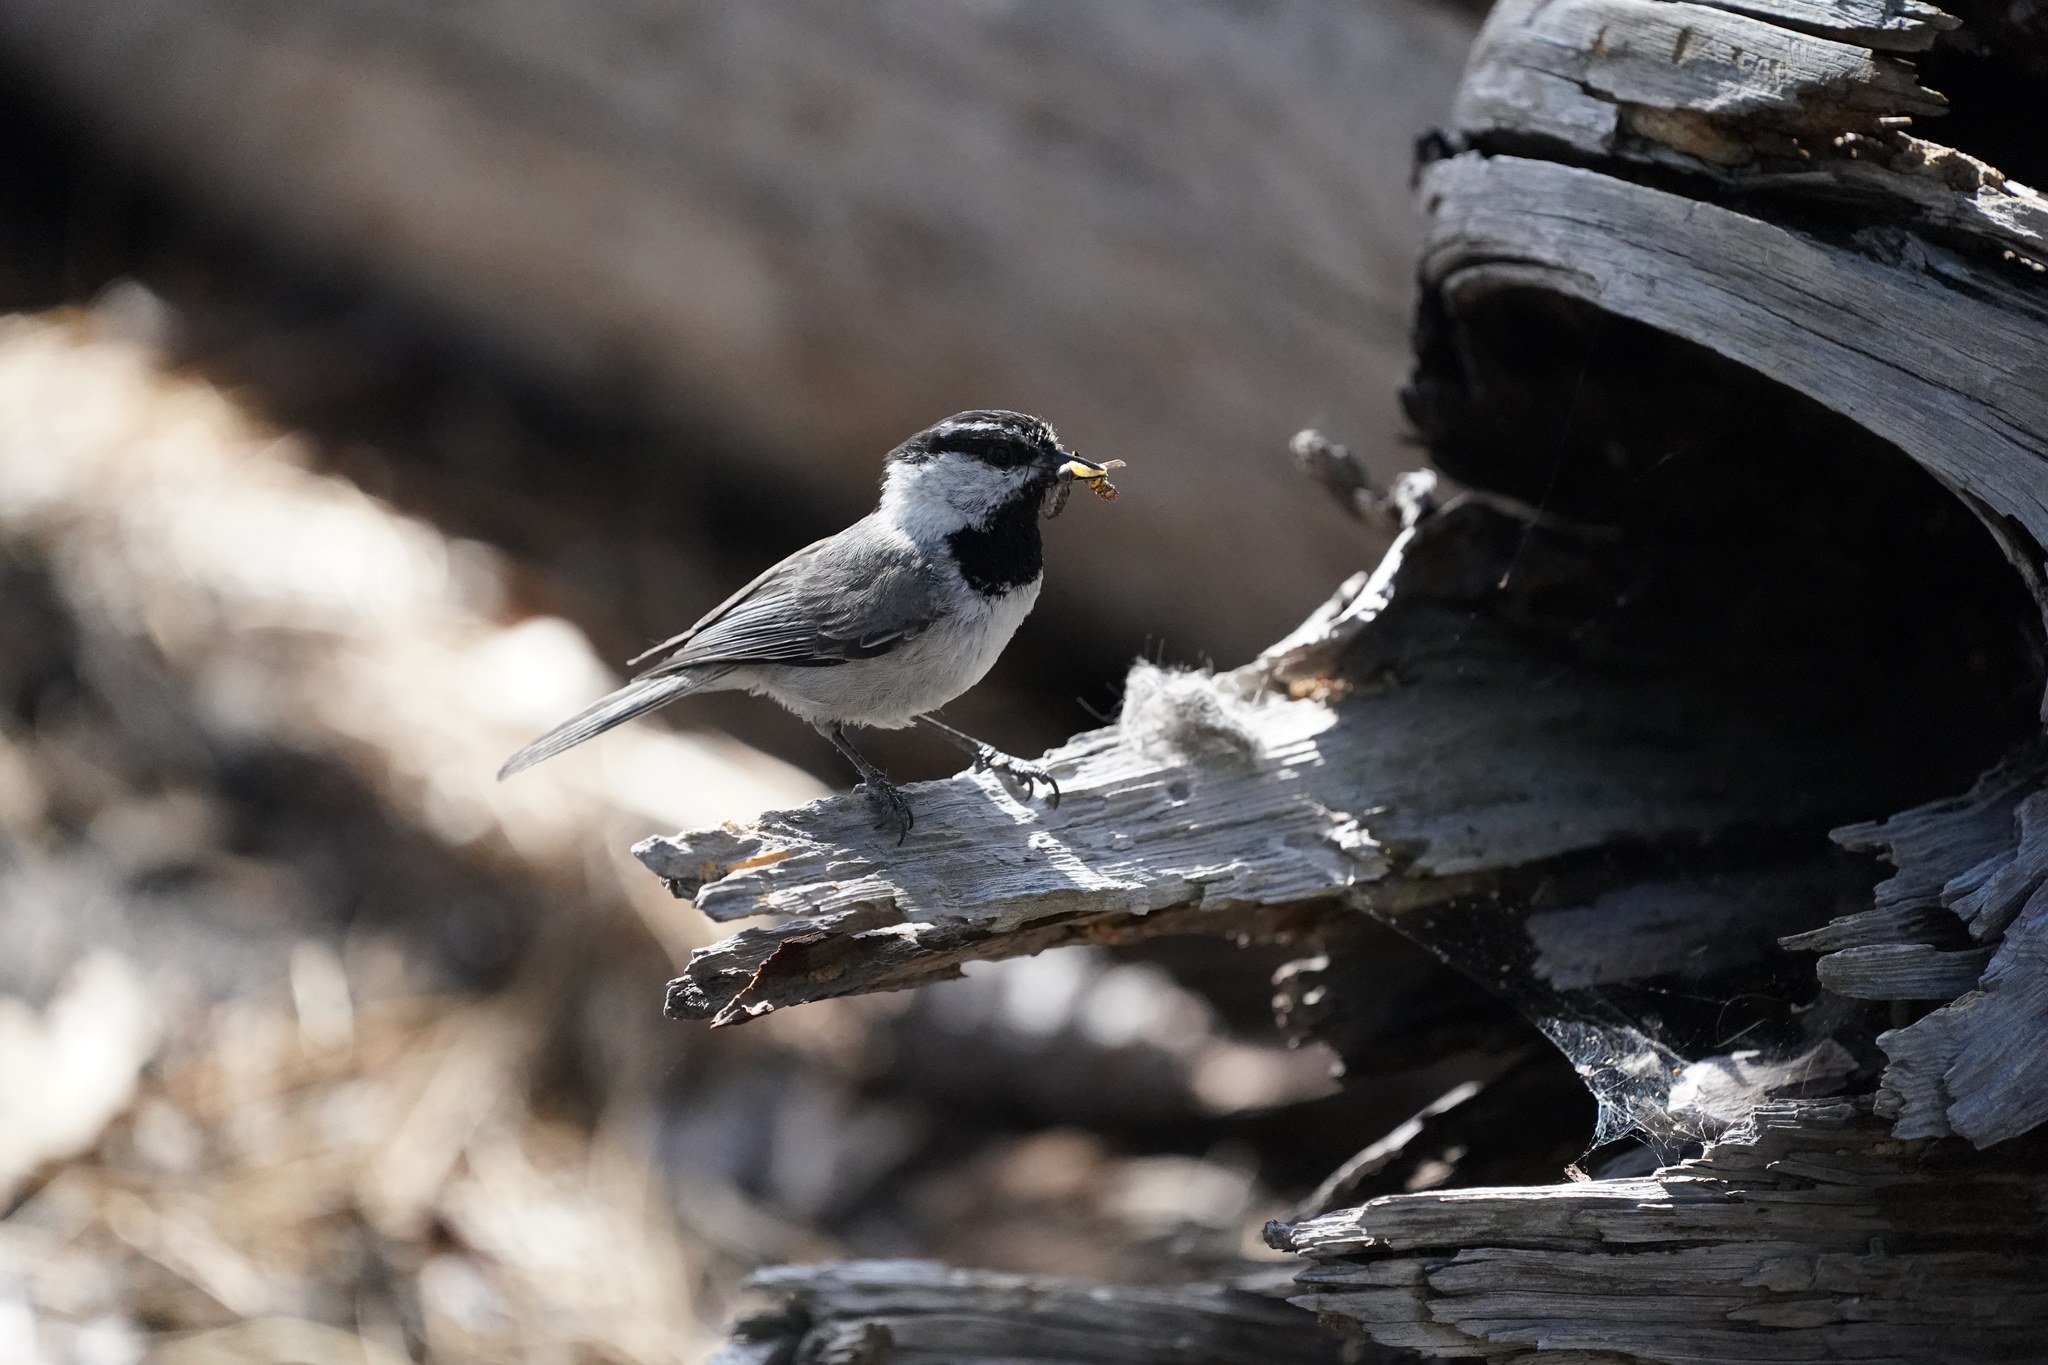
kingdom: Animalia
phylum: Chordata
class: Aves
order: Passeriformes
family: Paridae
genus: Poecile
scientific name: Poecile gambeli
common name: Mountain chickadee
